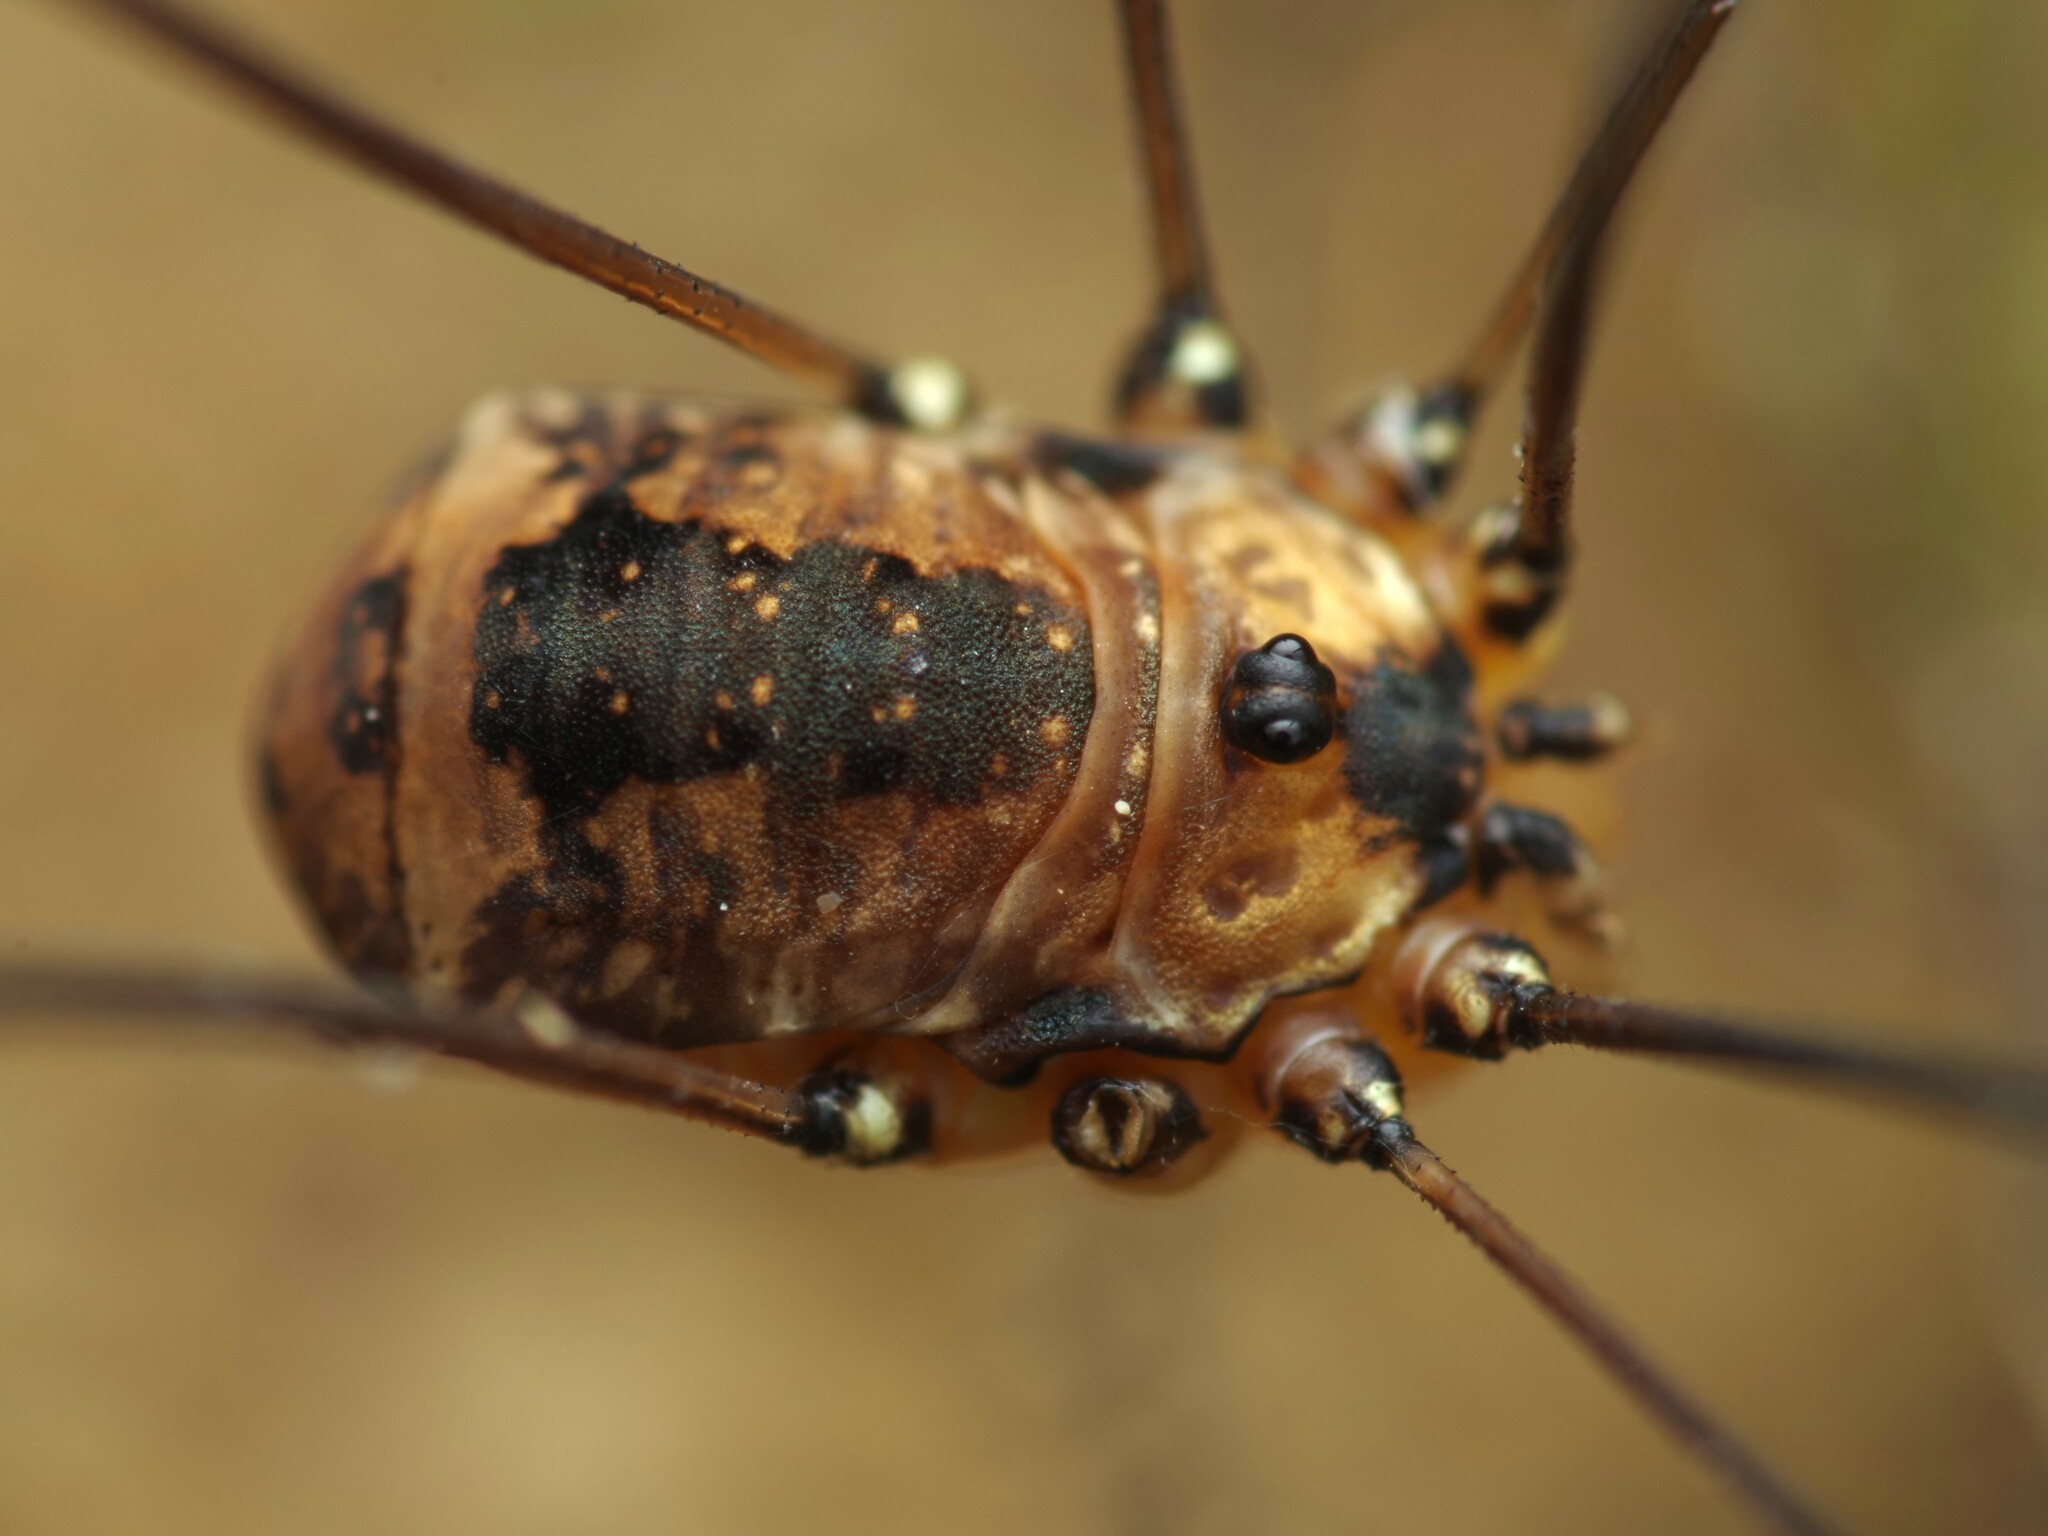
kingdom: Animalia
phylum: Arthropoda
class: Arachnida
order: Opiliones
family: Sclerosomatidae
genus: Leiobunum
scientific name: Leiobunum rotundum
